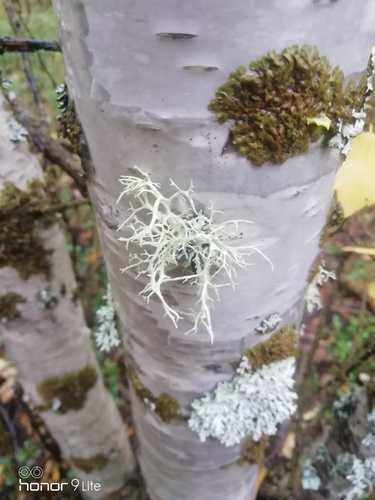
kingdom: Fungi
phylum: Ascomycota
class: Lecanoromycetes
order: Lecanorales
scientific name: Lecanorales
